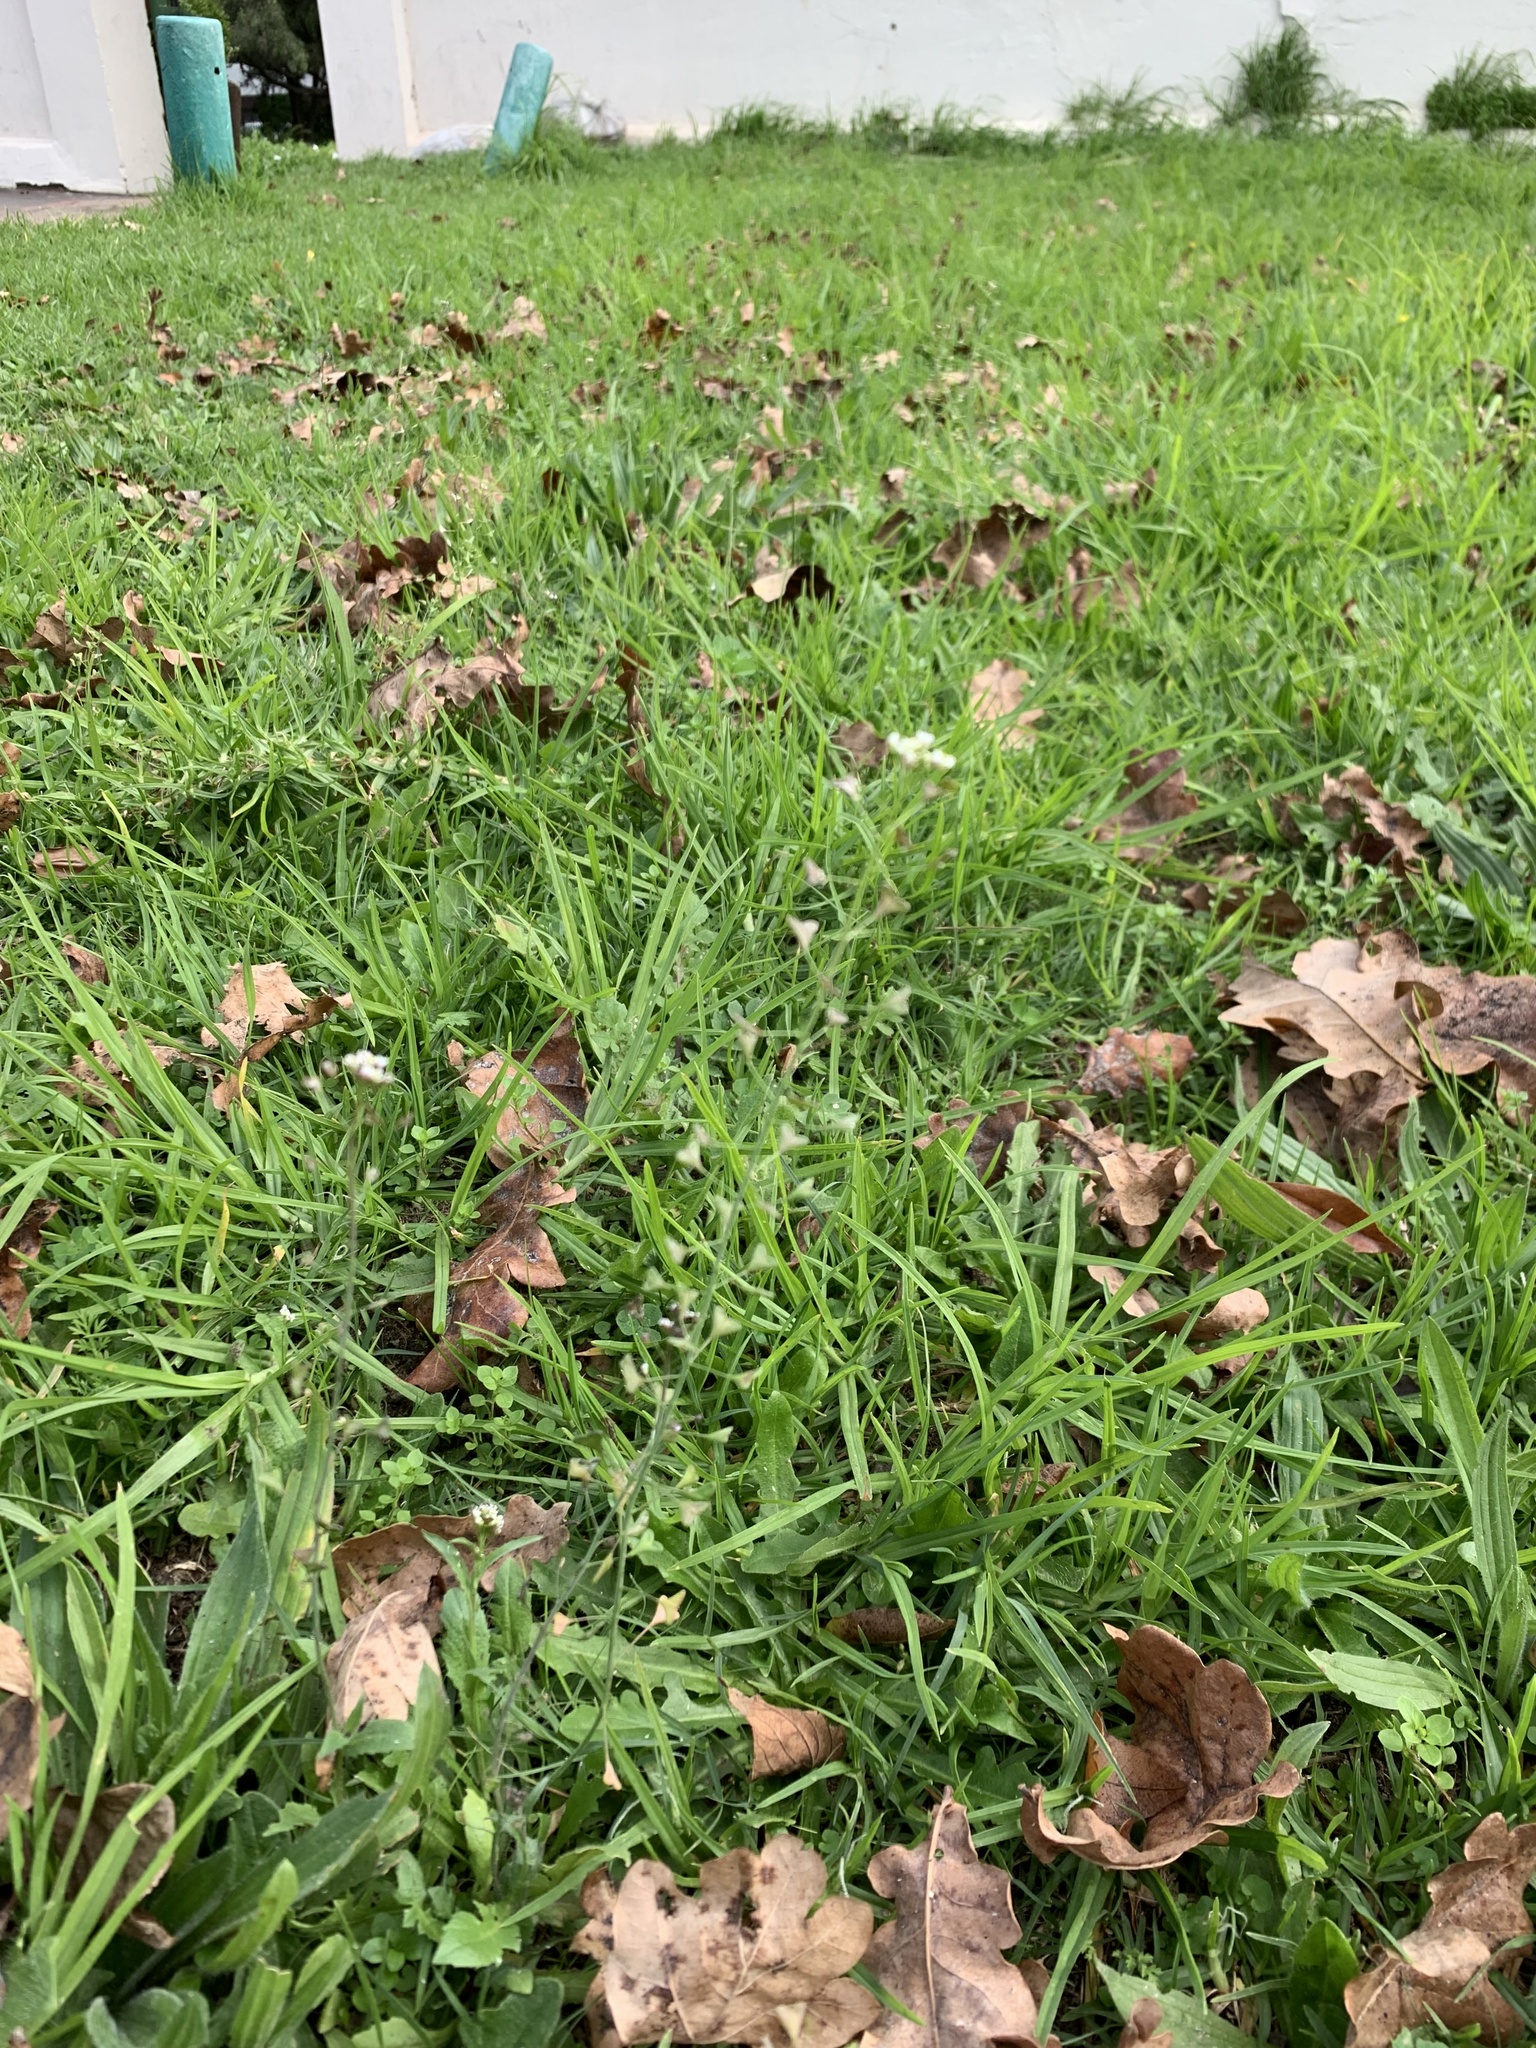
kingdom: Plantae
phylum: Tracheophyta
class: Magnoliopsida
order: Brassicales
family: Brassicaceae
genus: Capsella
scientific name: Capsella bursa-pastoris
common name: Shepherd's purse
